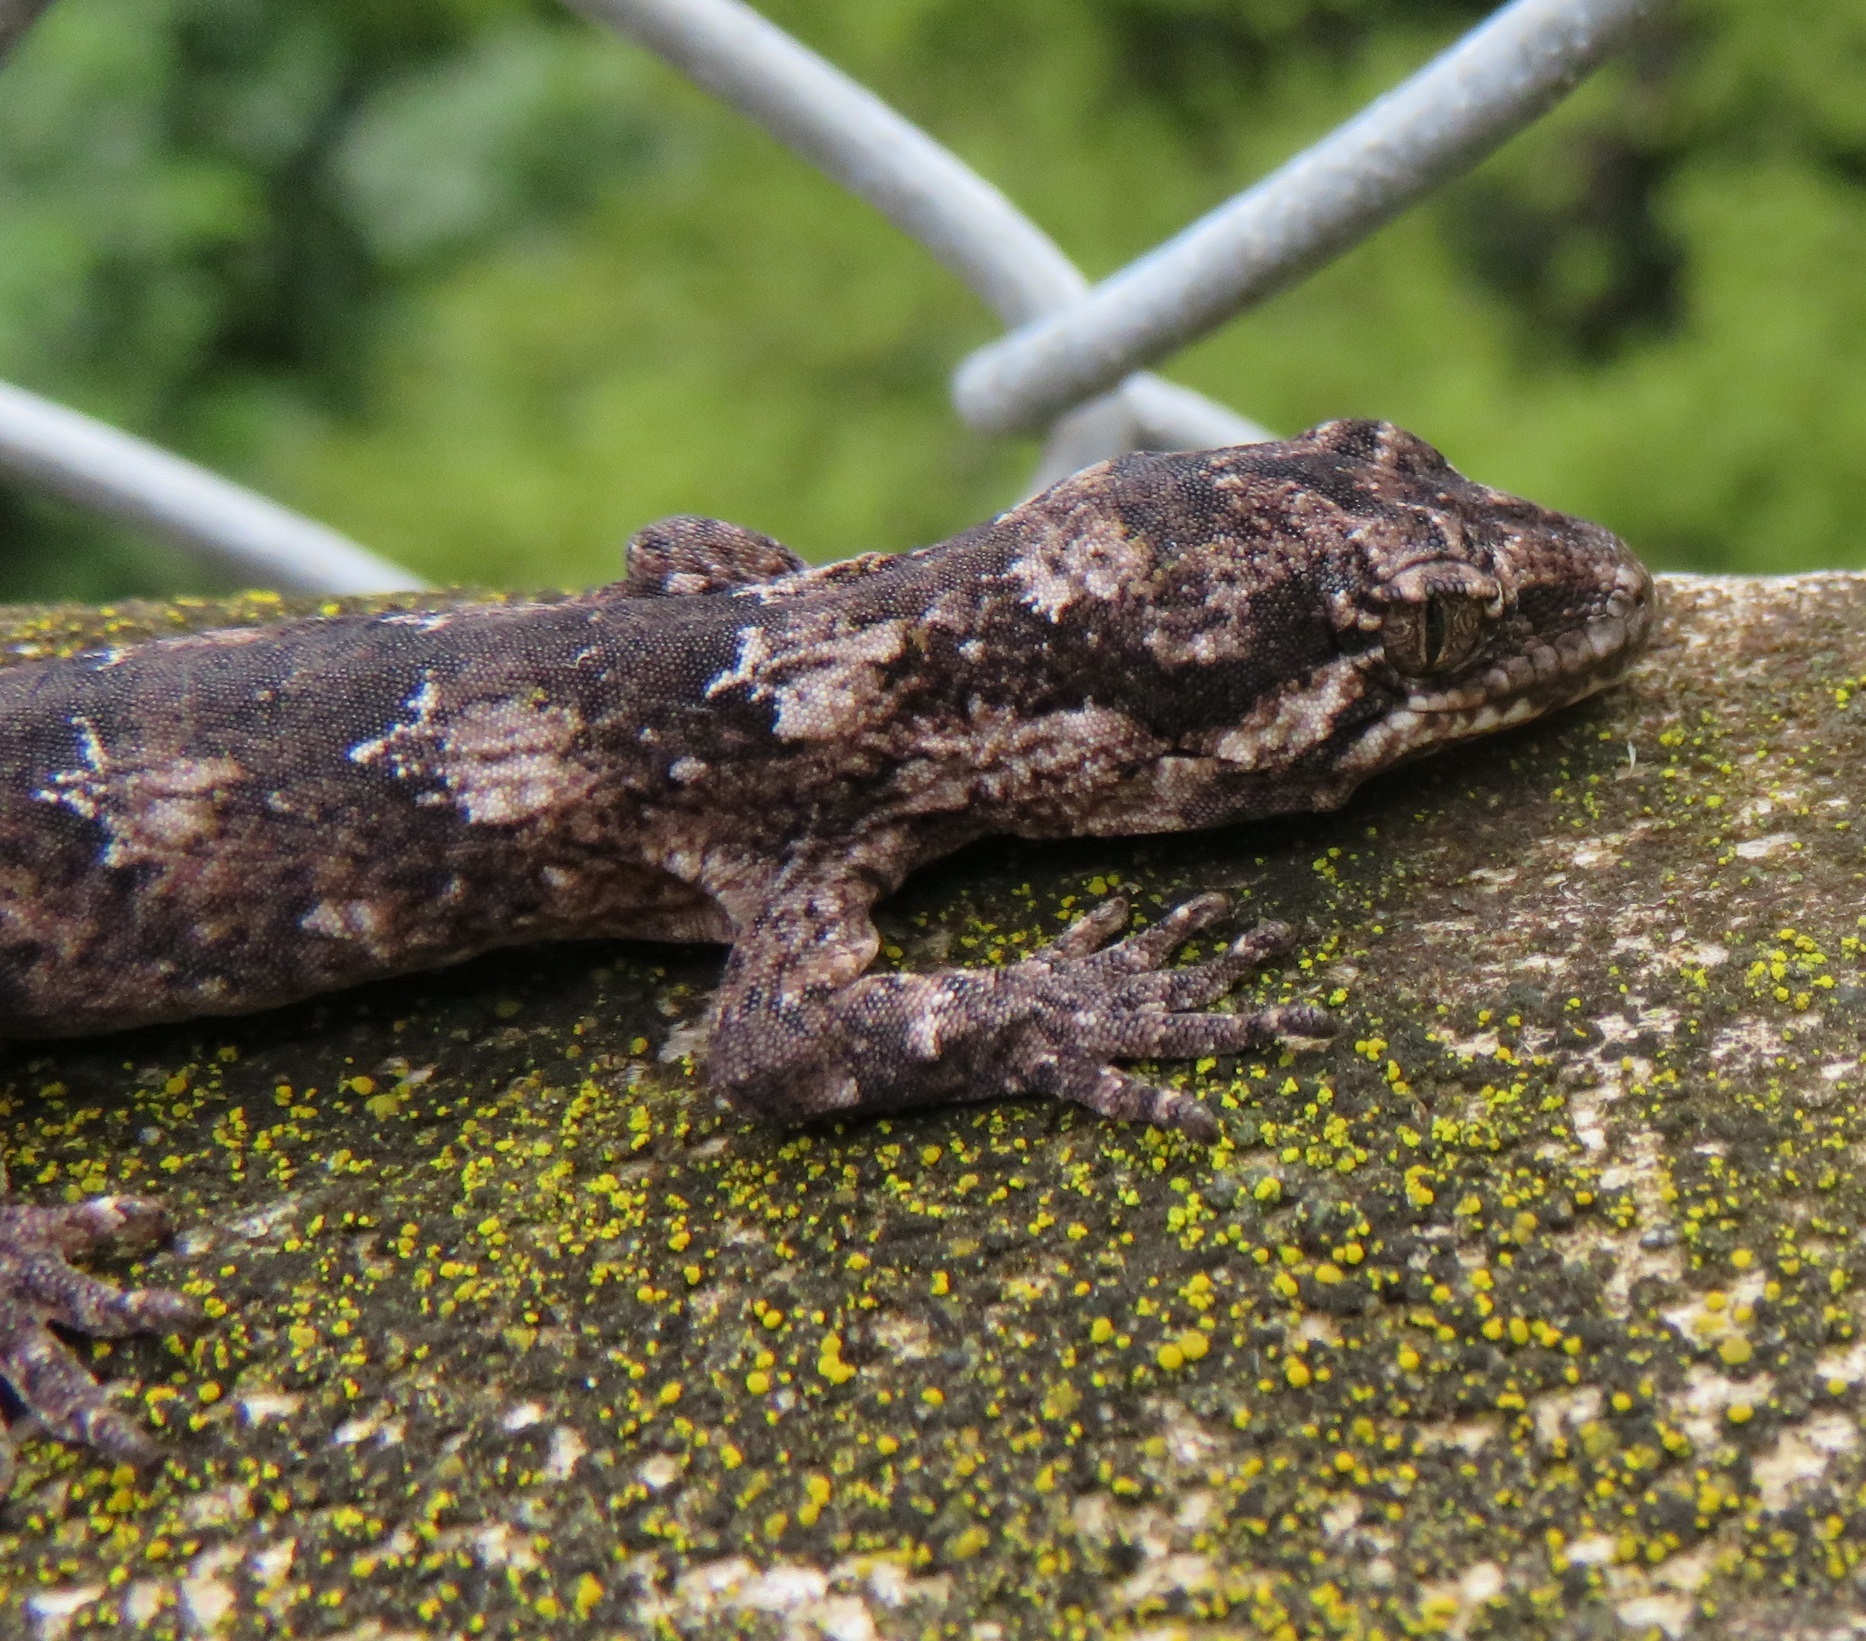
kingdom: Animalia
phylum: Chordata
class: Squamata
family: Diplodactylidae
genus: Mokopirirakau
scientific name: Mokopirirakau
